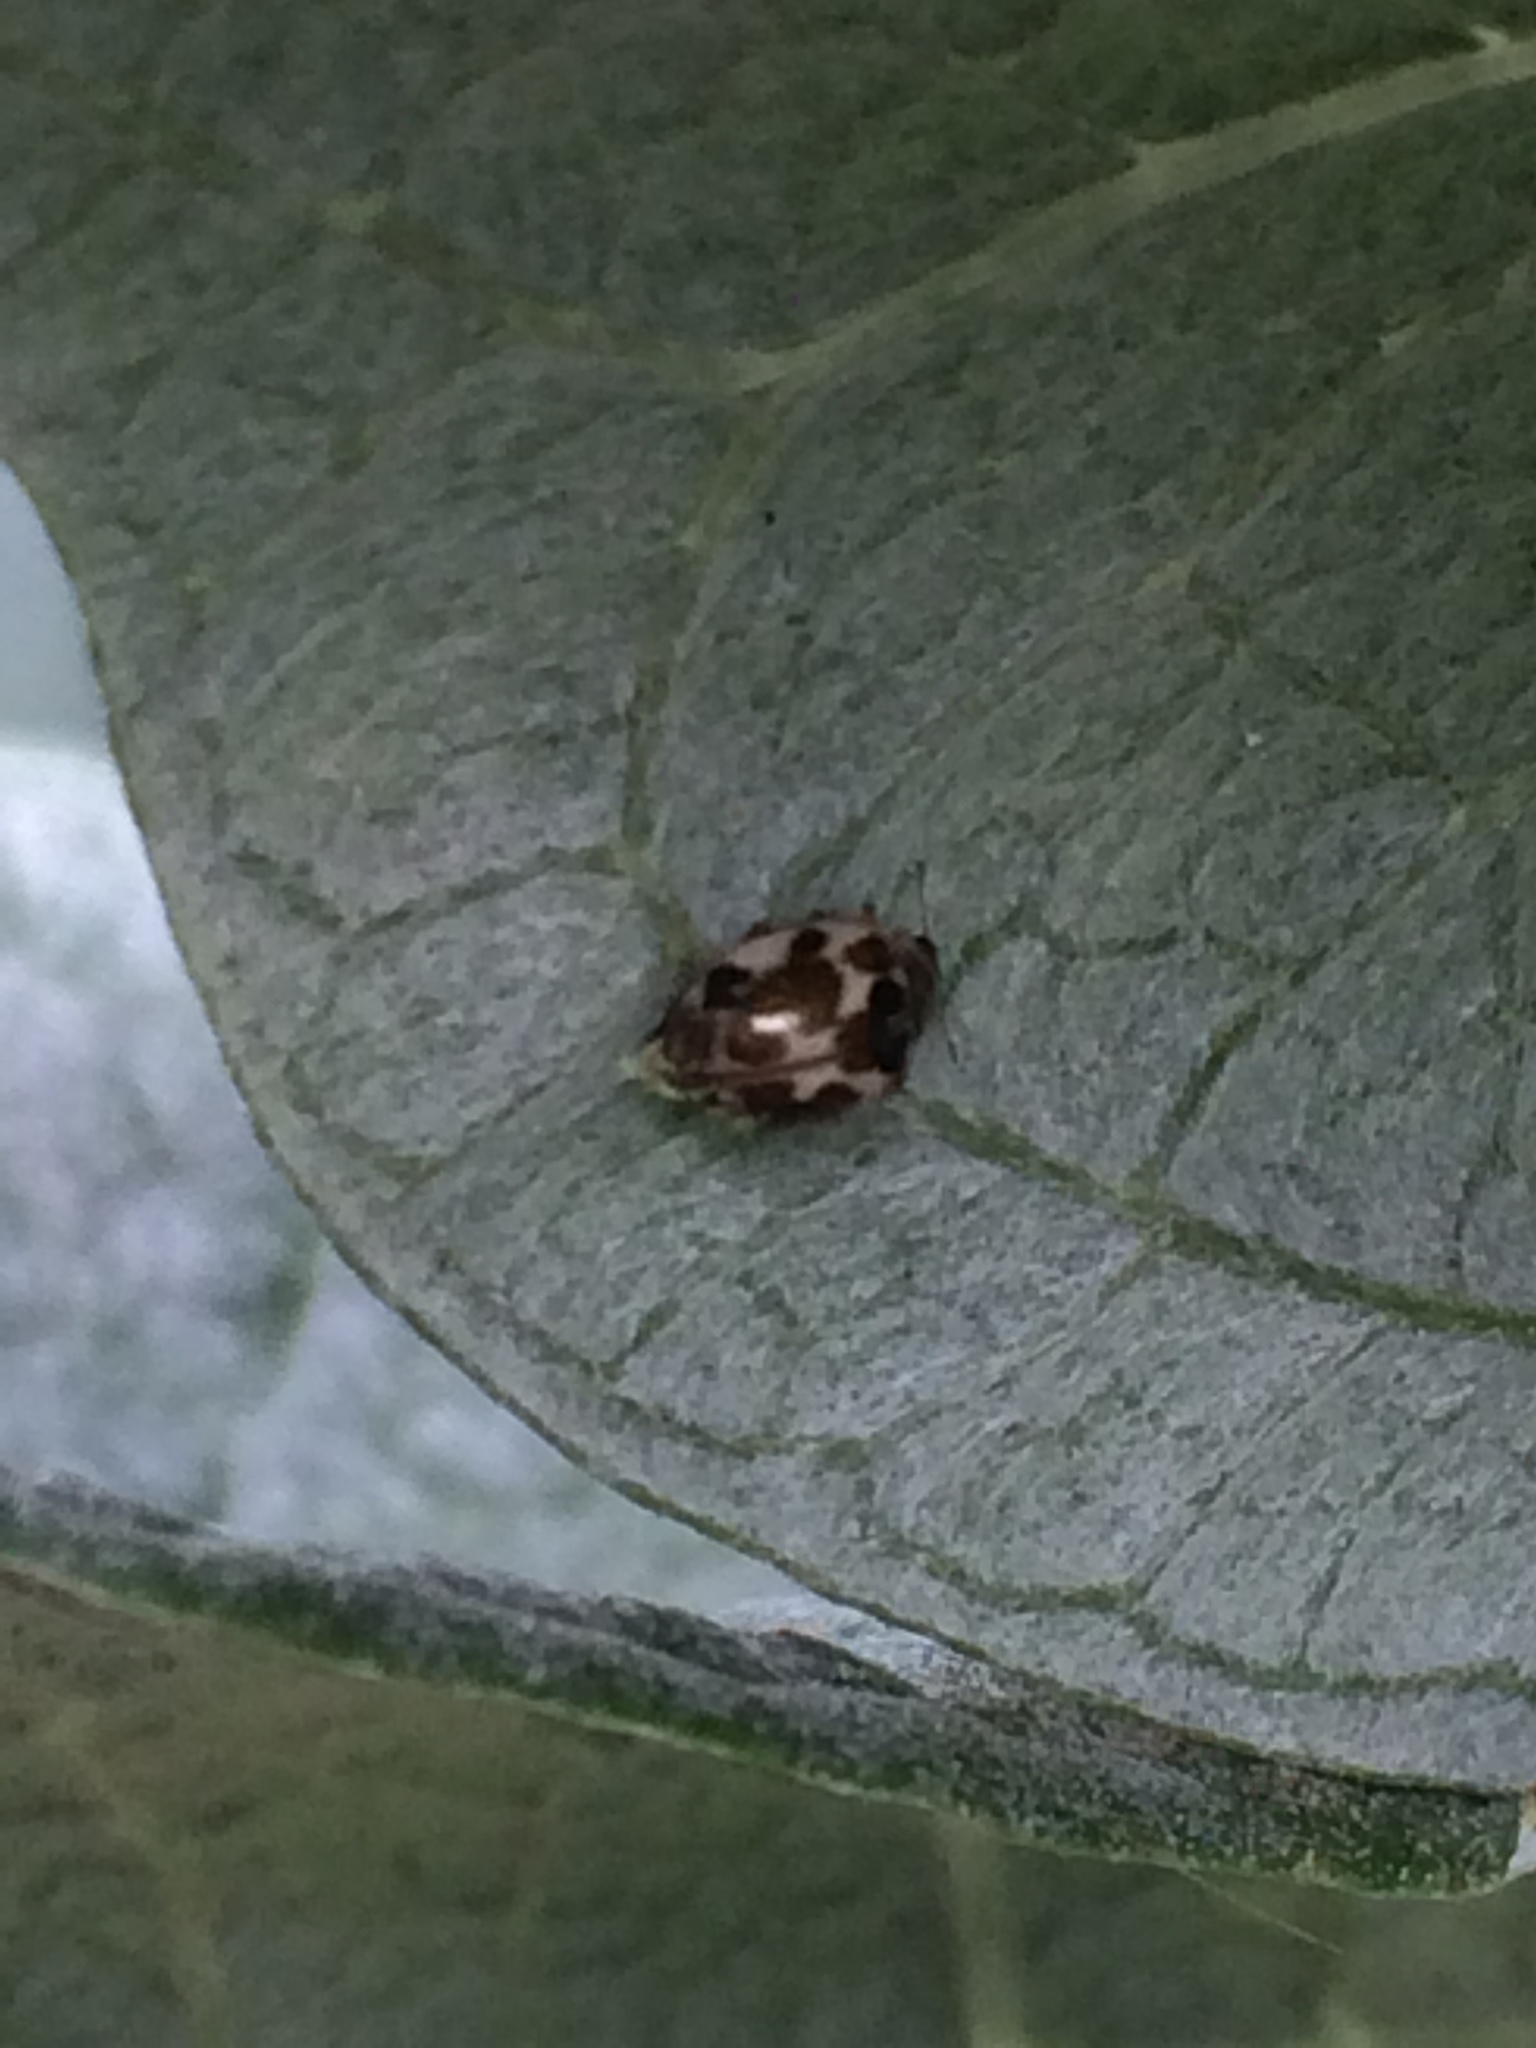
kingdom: Animalia
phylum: Arthropoda
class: Insecta
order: Coleoptera
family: Coccinellidae
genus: Psyllobora
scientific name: Psyllobora vigintimaculata
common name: Ladybird beetle
